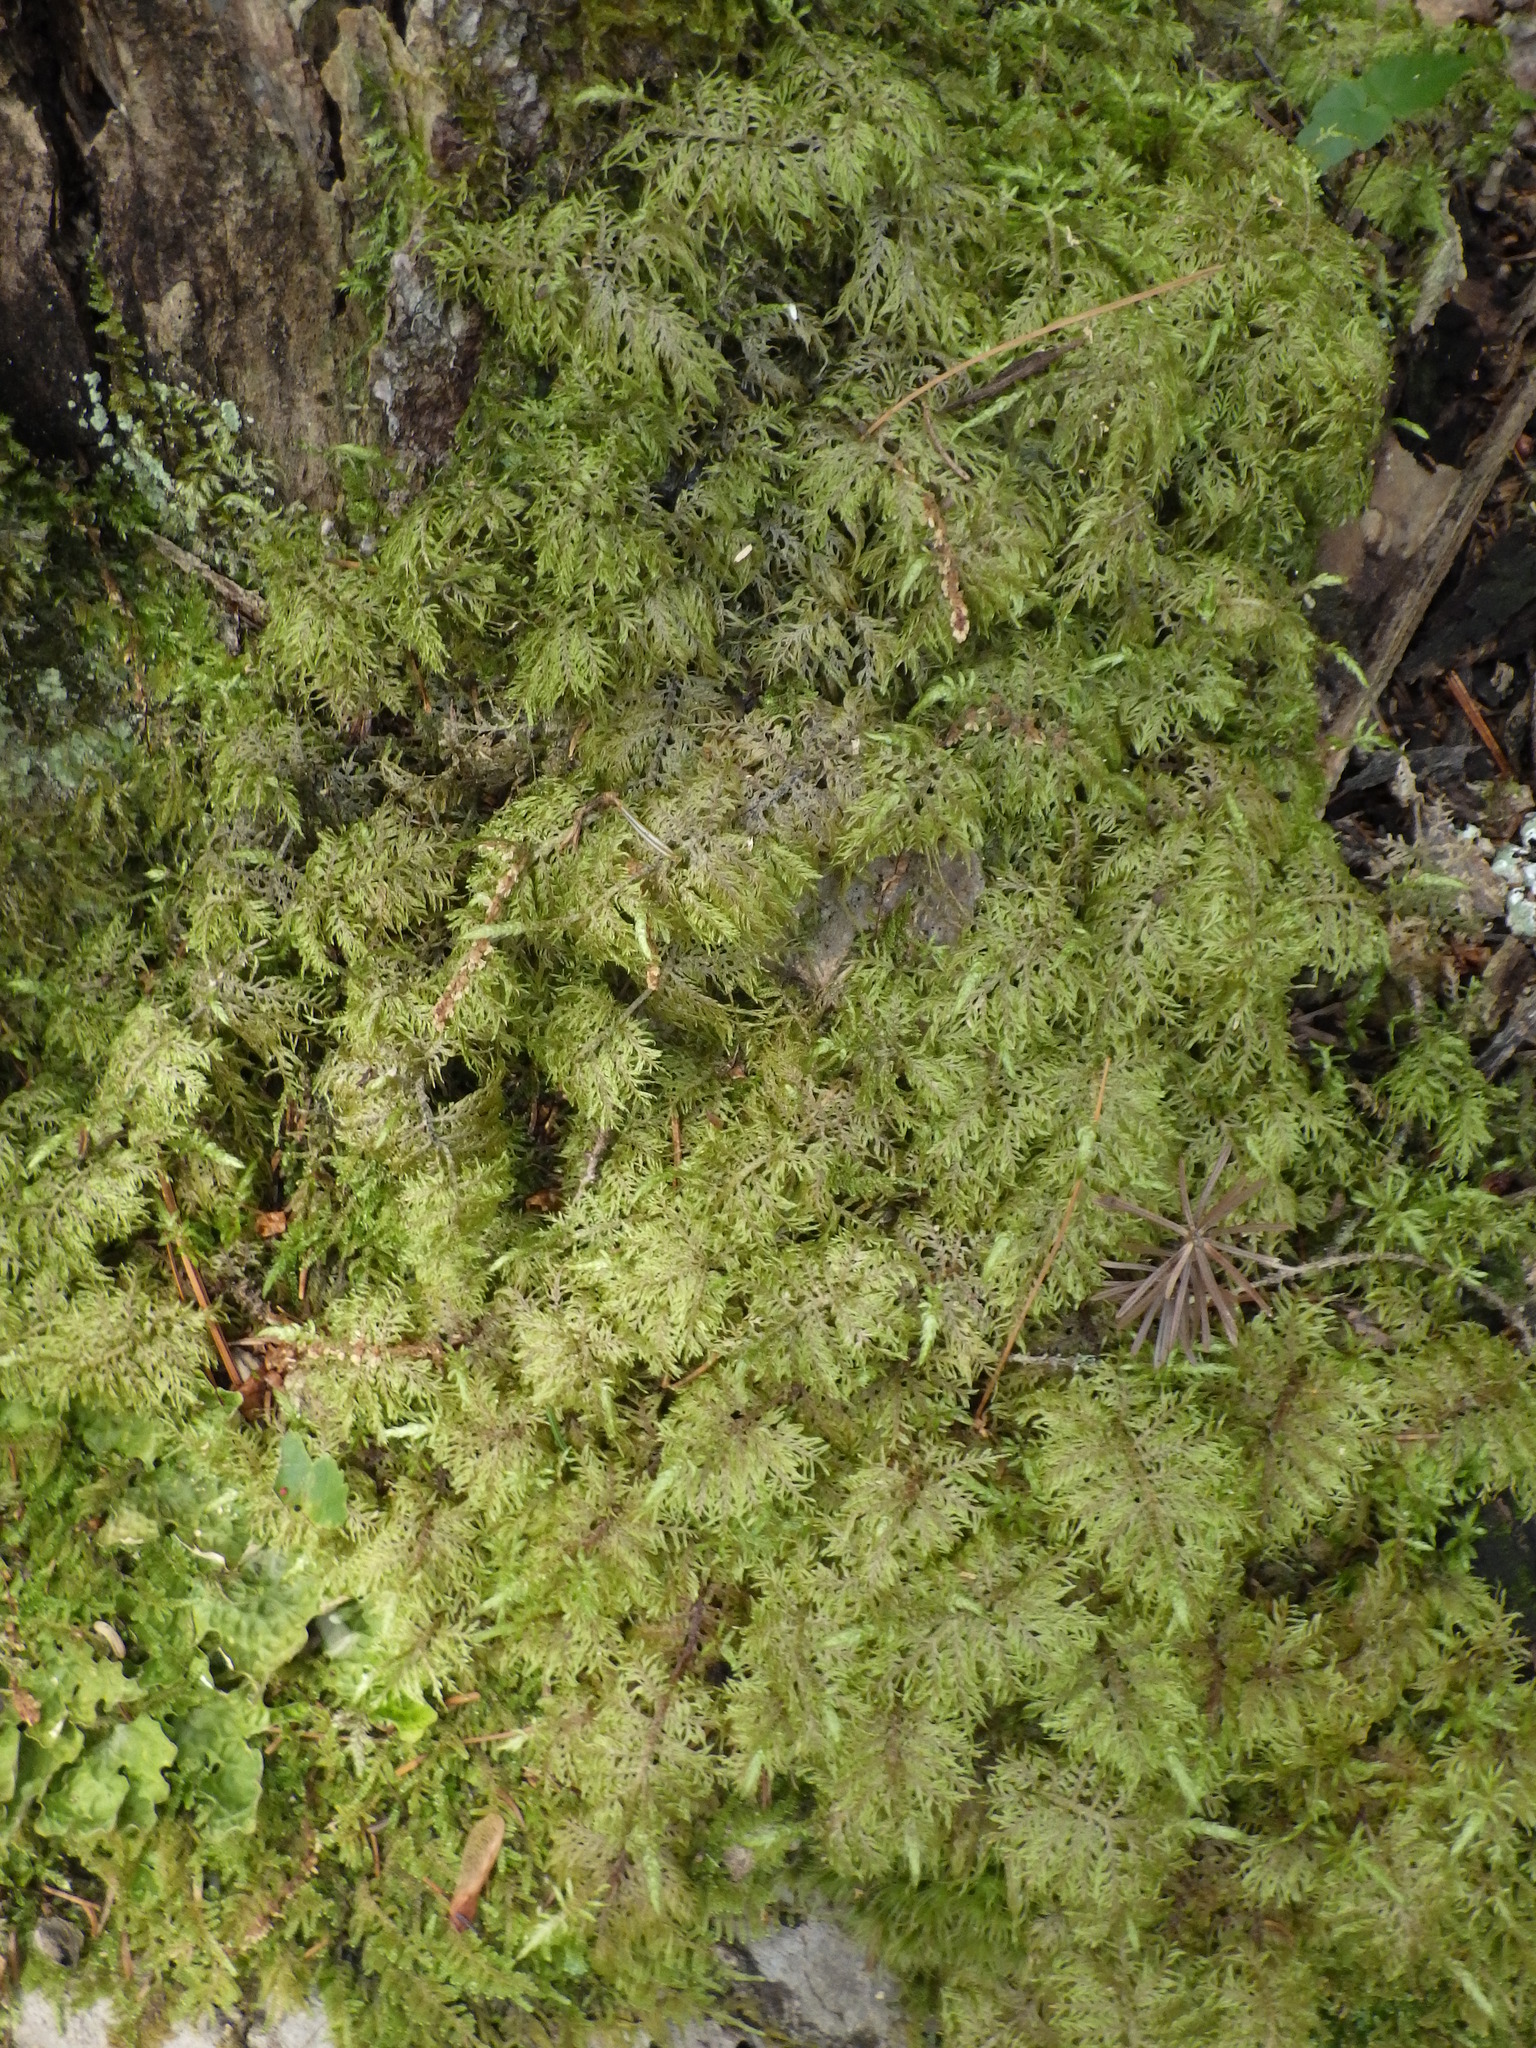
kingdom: Plantae
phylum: Bryophyta
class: Bryopsida
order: Hypnales
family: Hylocomiaceae
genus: Hylocomium
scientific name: Hylocomium splendens
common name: Stairstep moss
